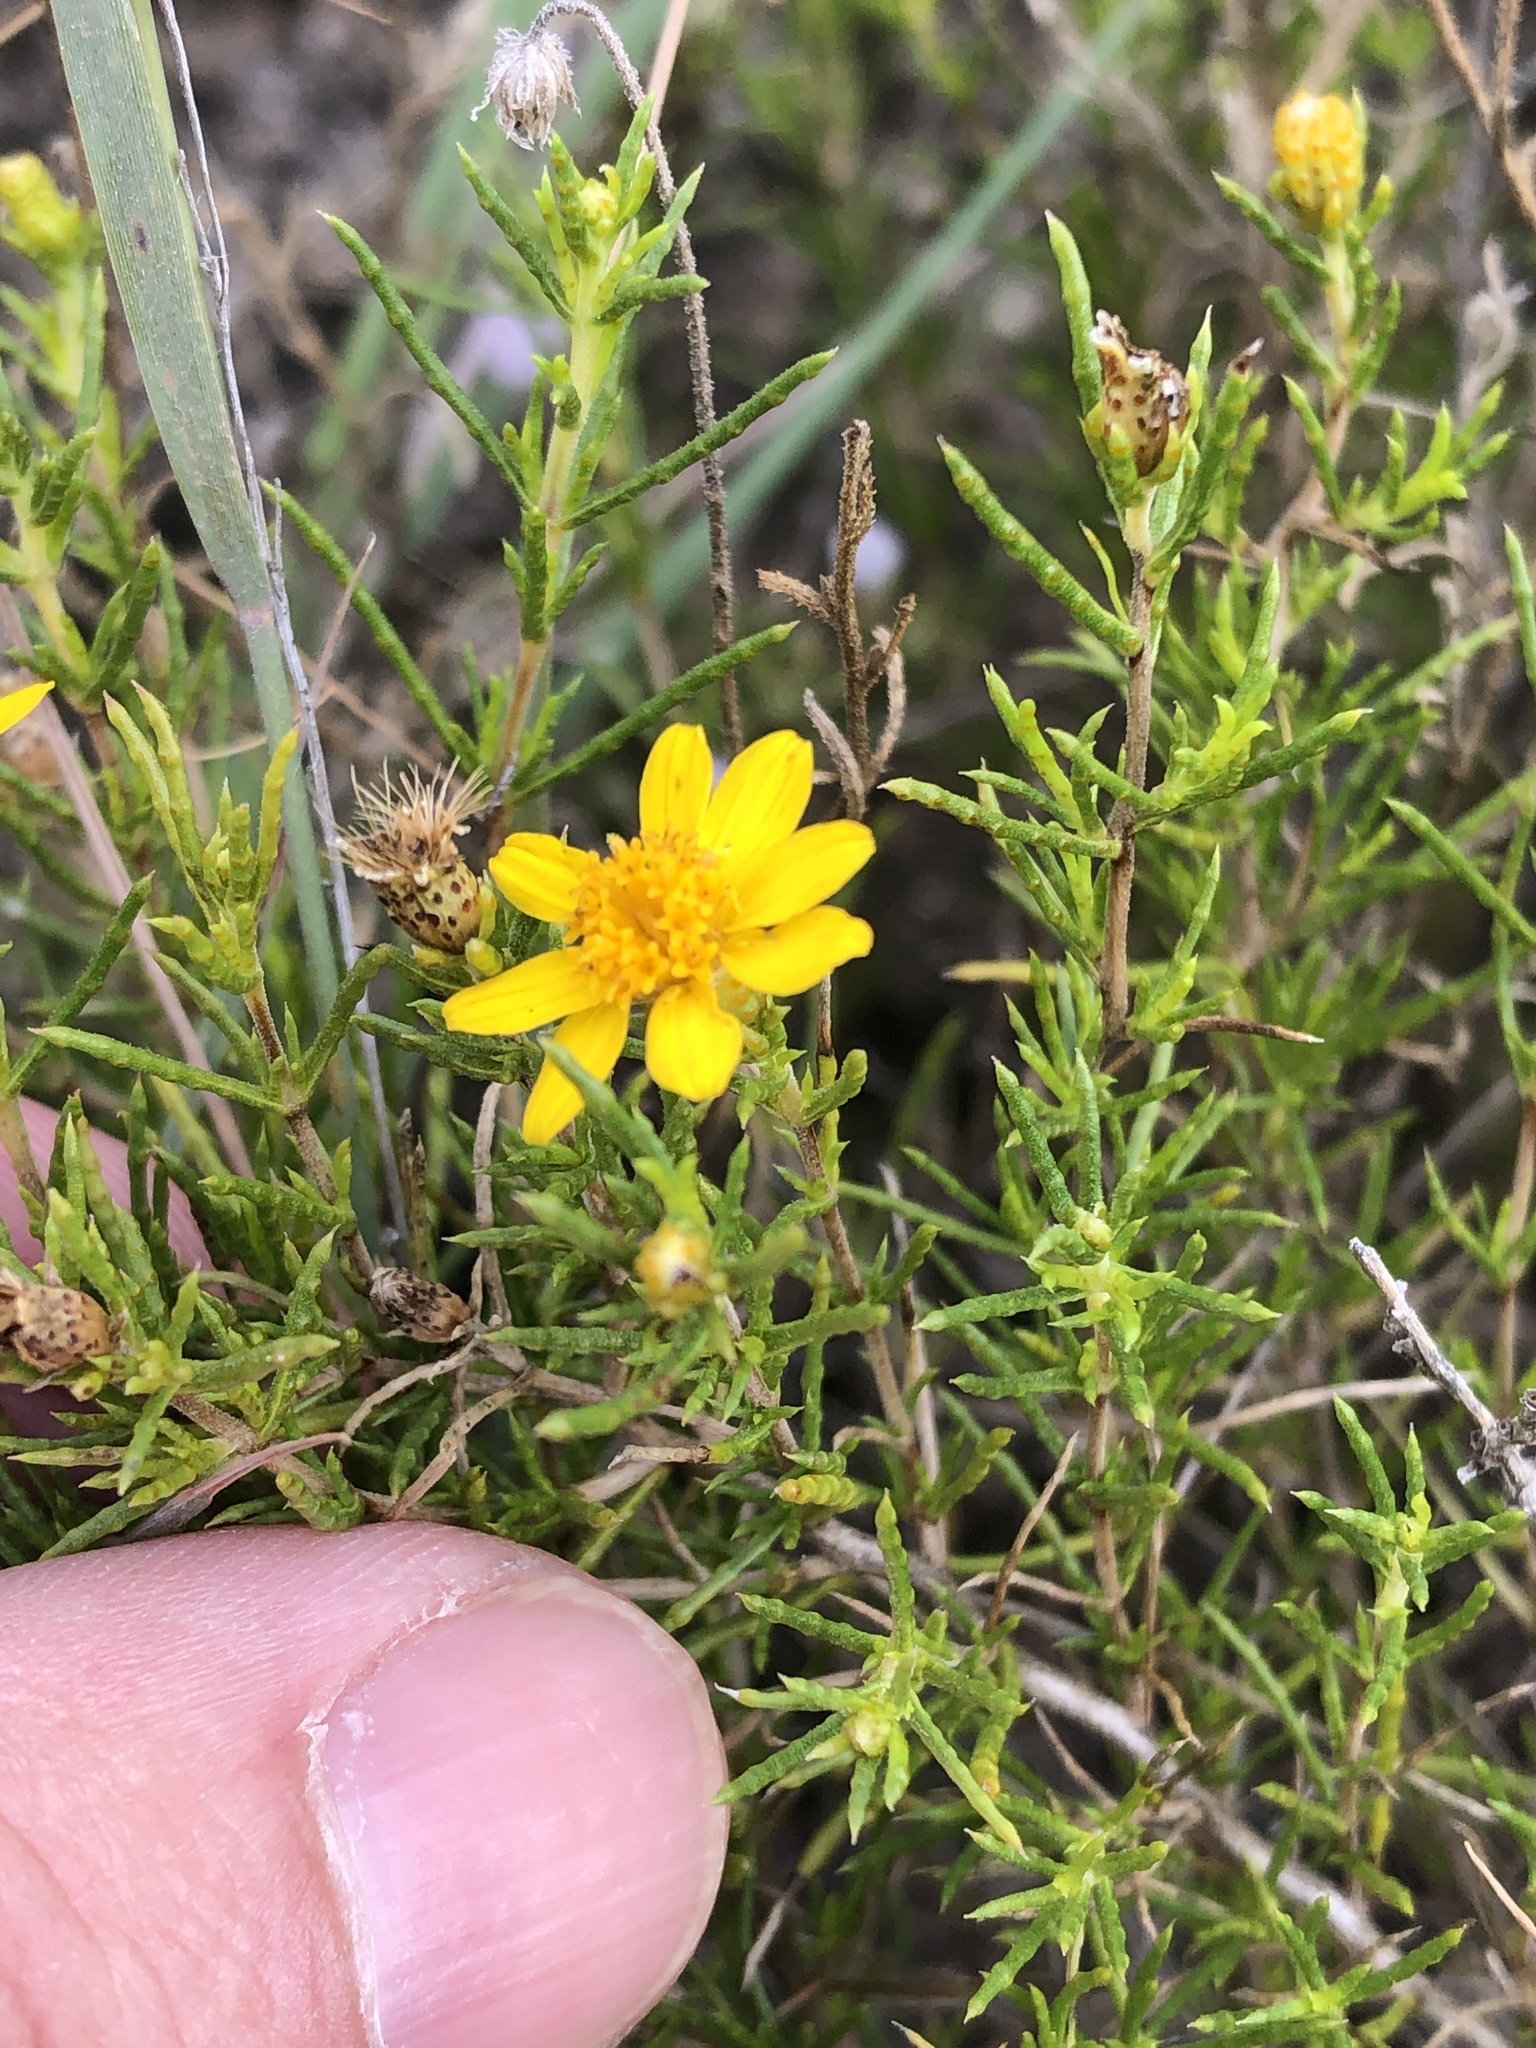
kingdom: Plantae
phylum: Tracheophyta
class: Magnoliopsida
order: Asterales
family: Asteraceae
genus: Thymophylla
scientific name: Thymophylla acerosa
